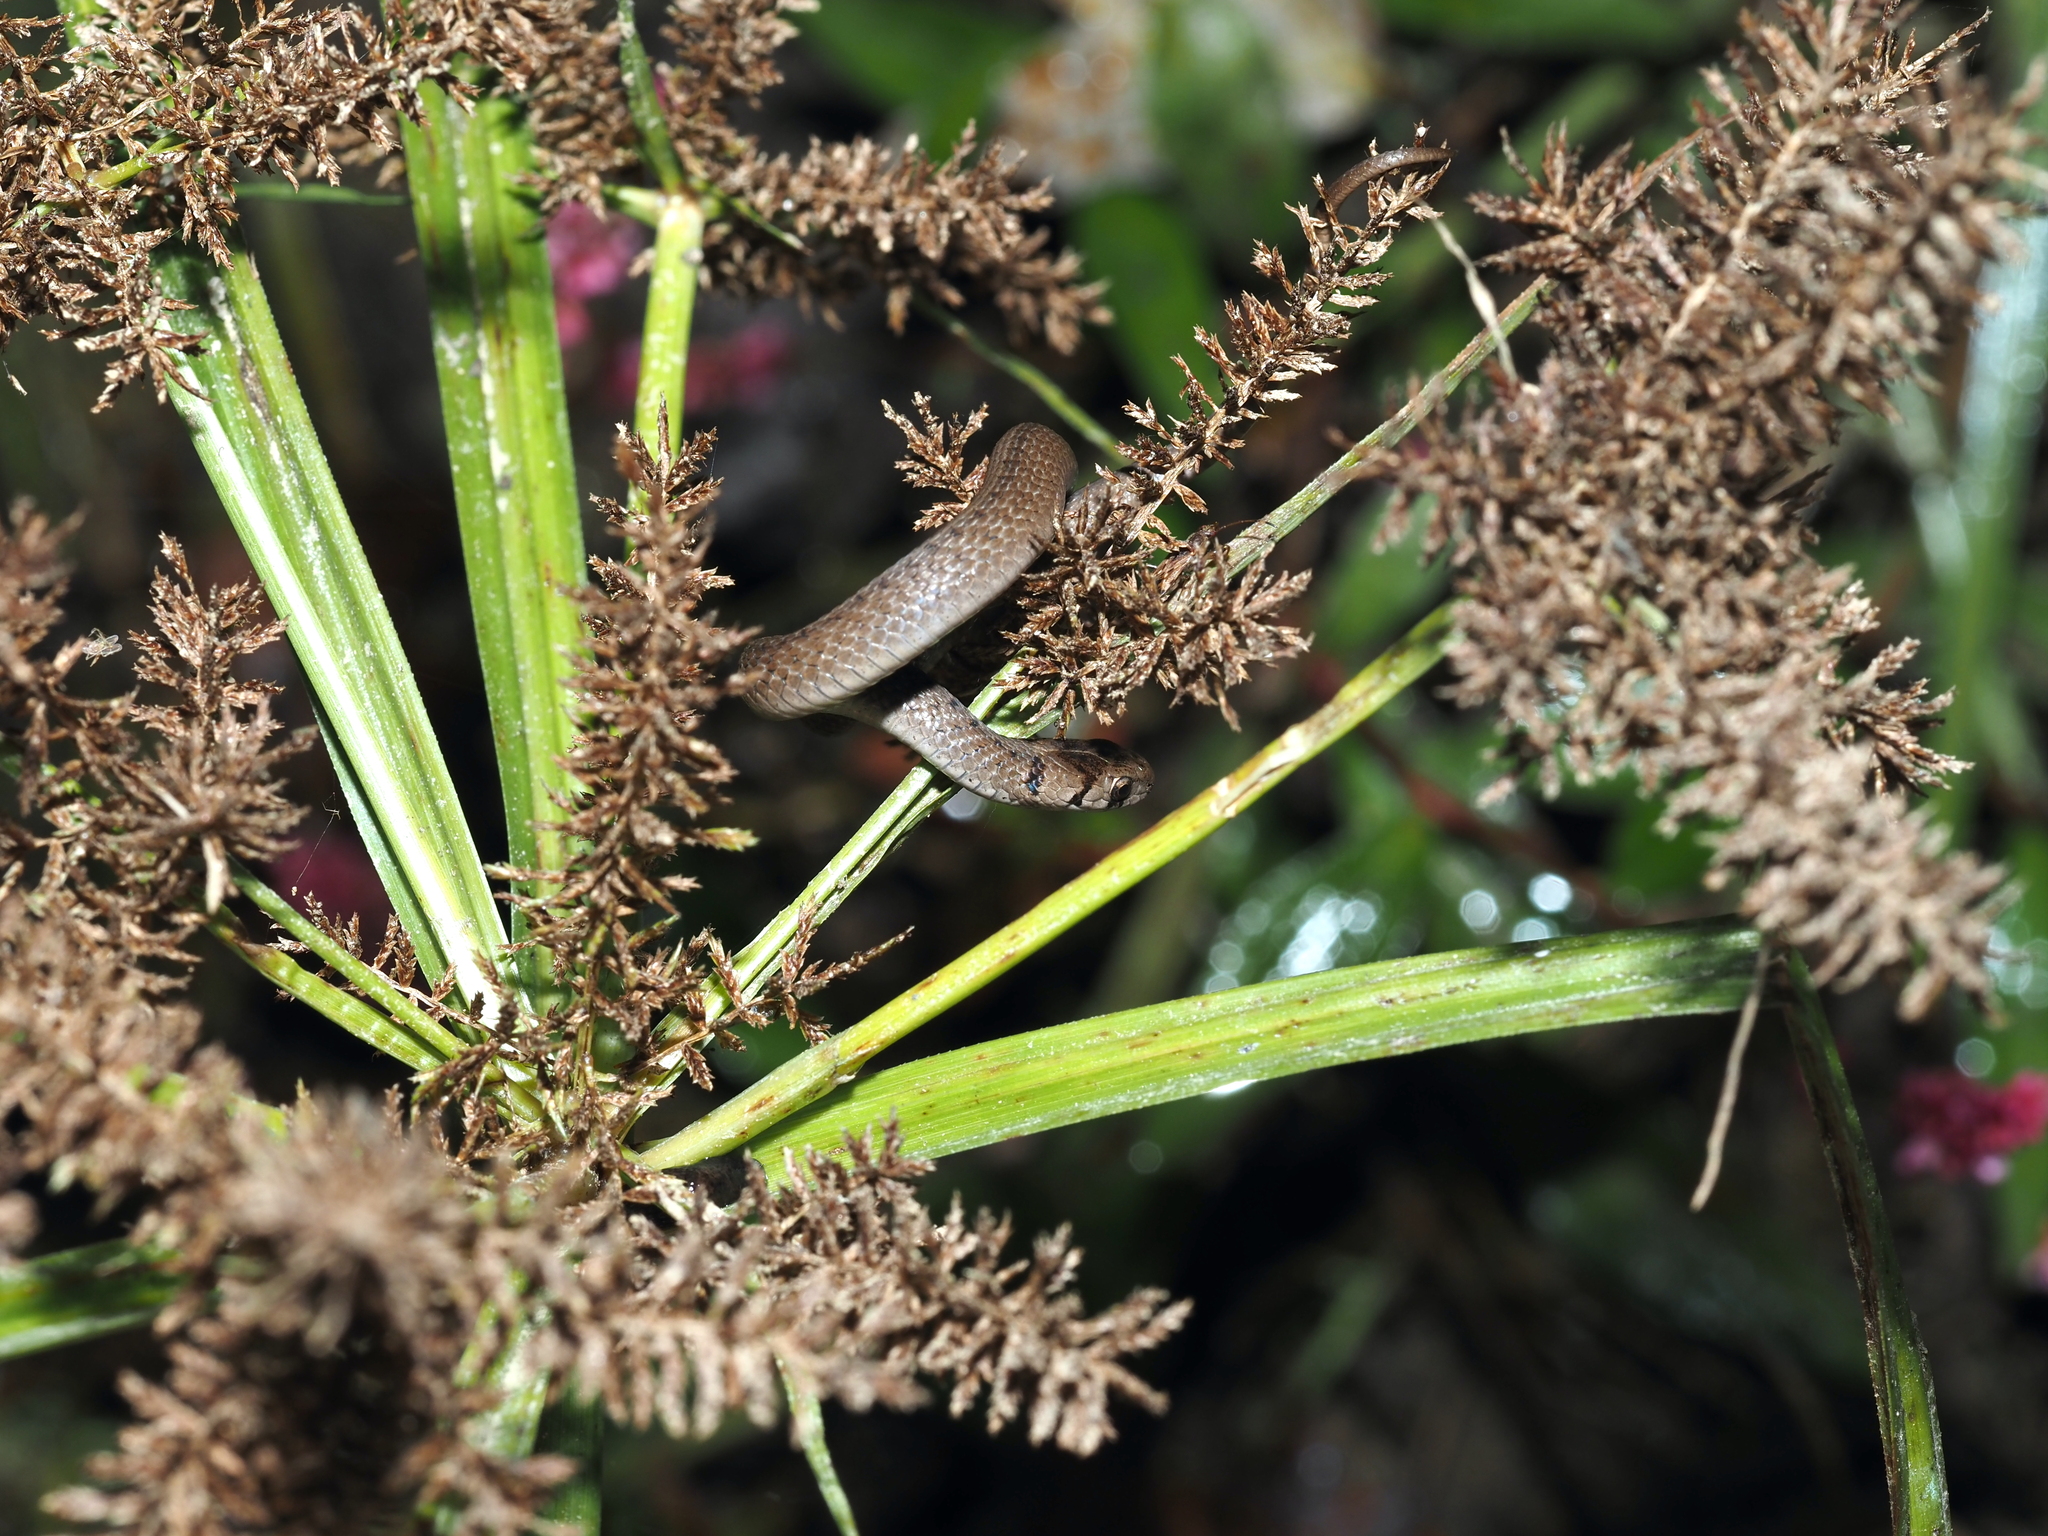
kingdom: Animalia
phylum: Chordata
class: Squamata
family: Colubridae
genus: Storeria
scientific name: Storeria dekayi
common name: (dekay’s) brown snake
